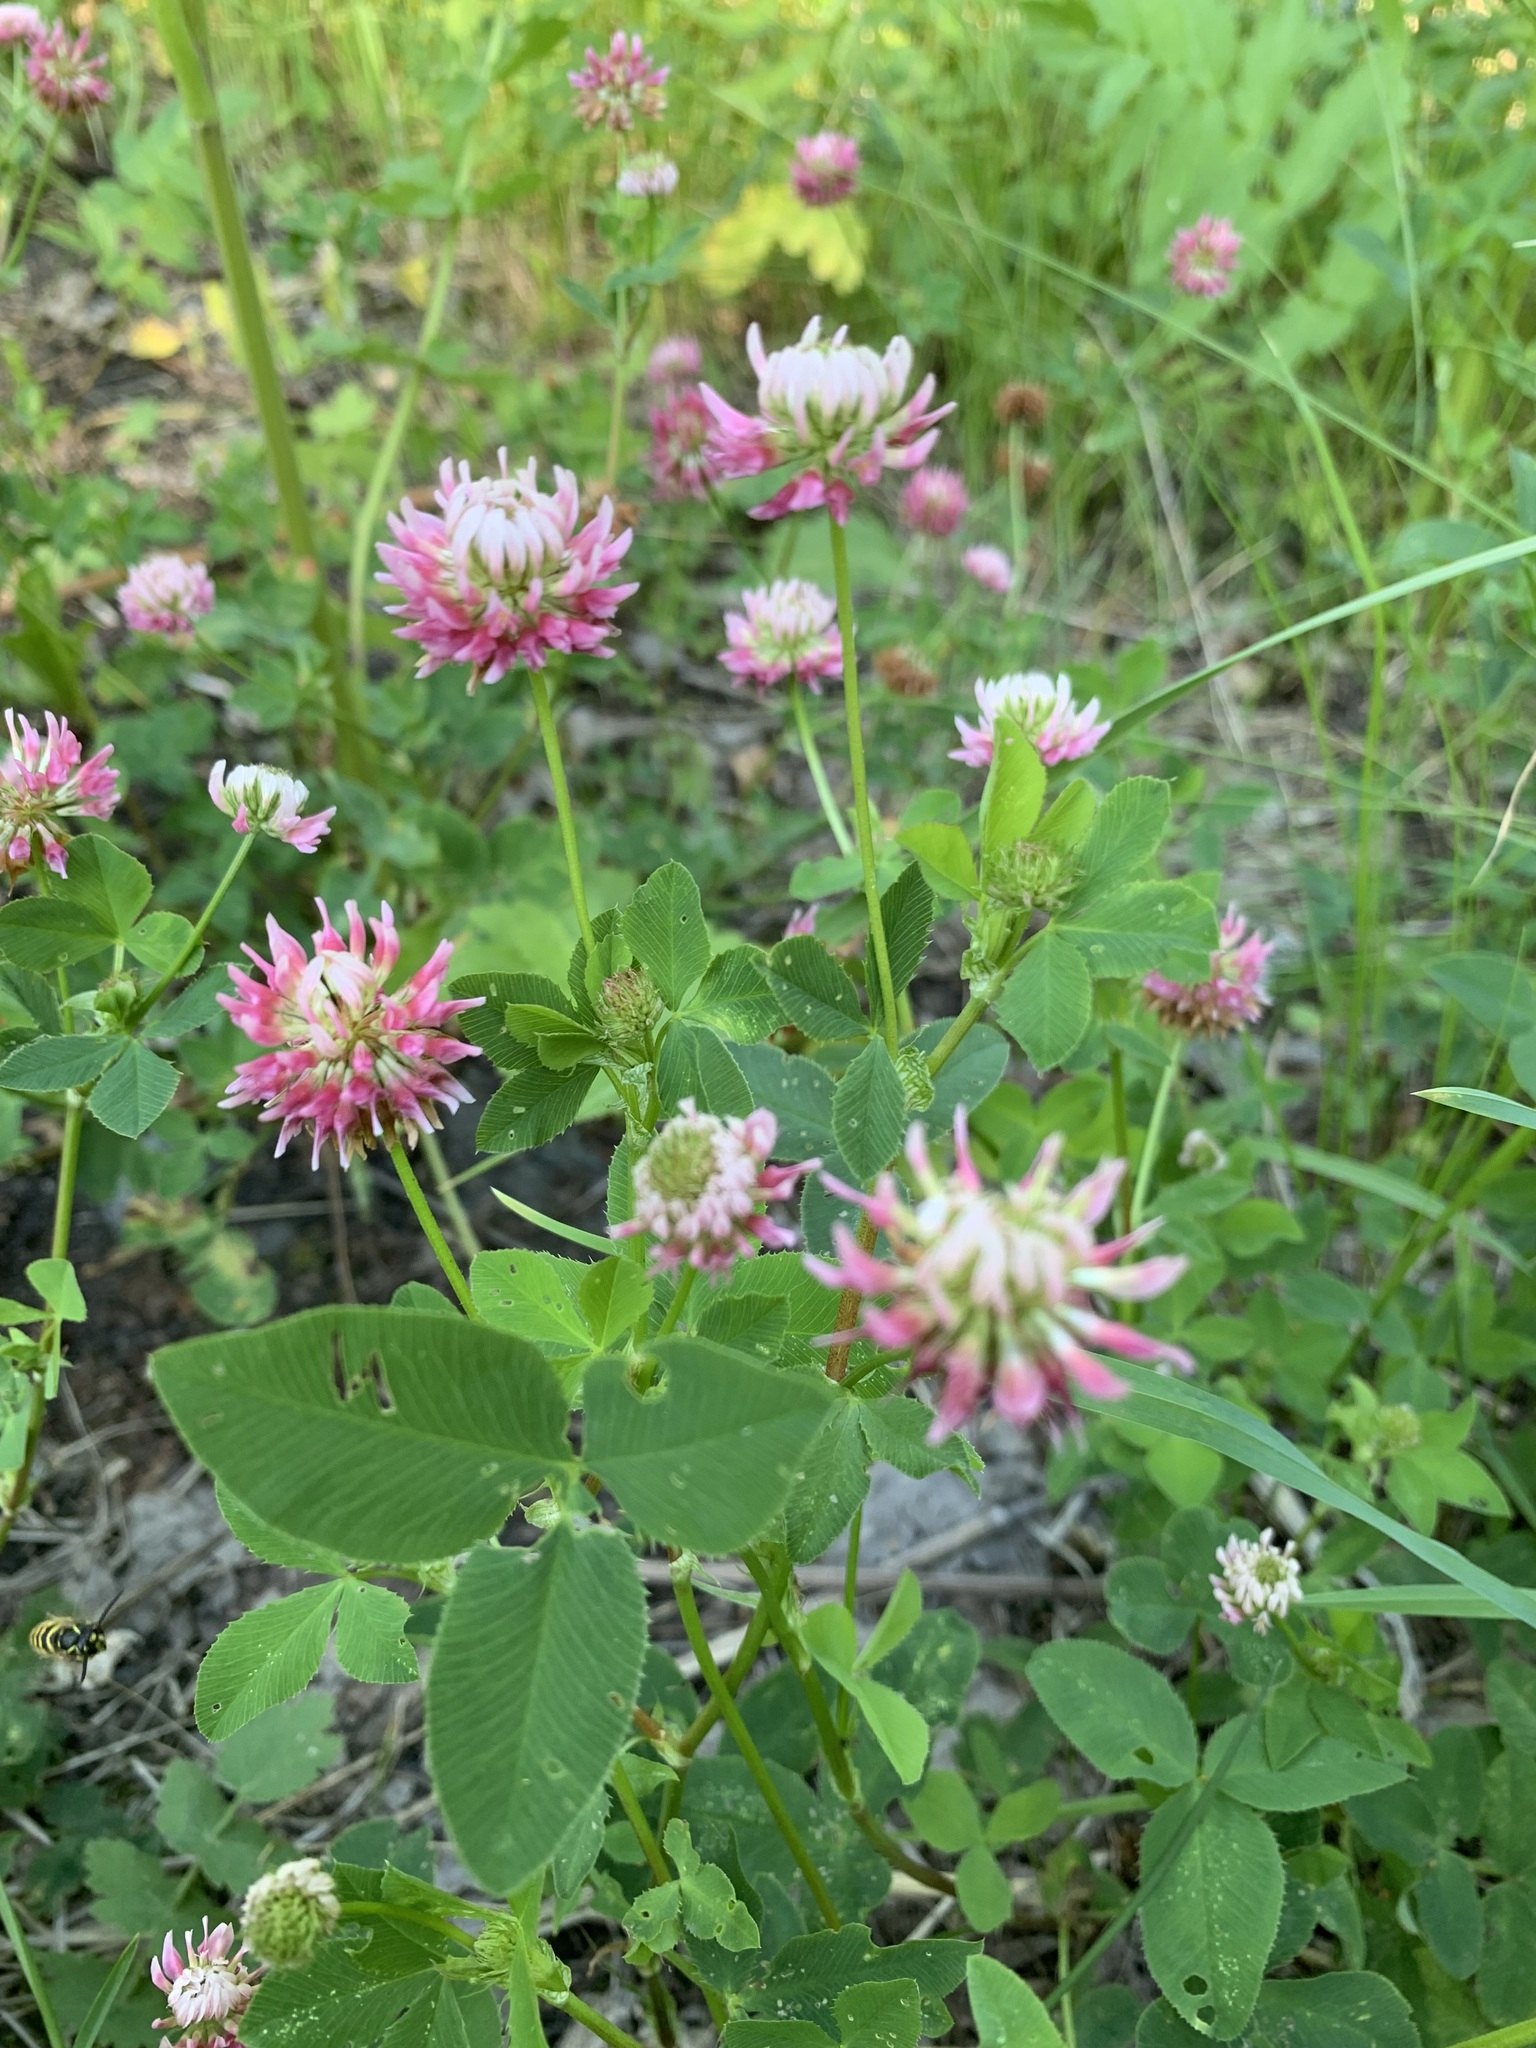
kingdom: Plantae
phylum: Tracheophyta
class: Magnoliopsida
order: Fabales
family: Fabaceae
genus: Trifolium
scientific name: Trifolium hybridum
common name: Alsike clover
